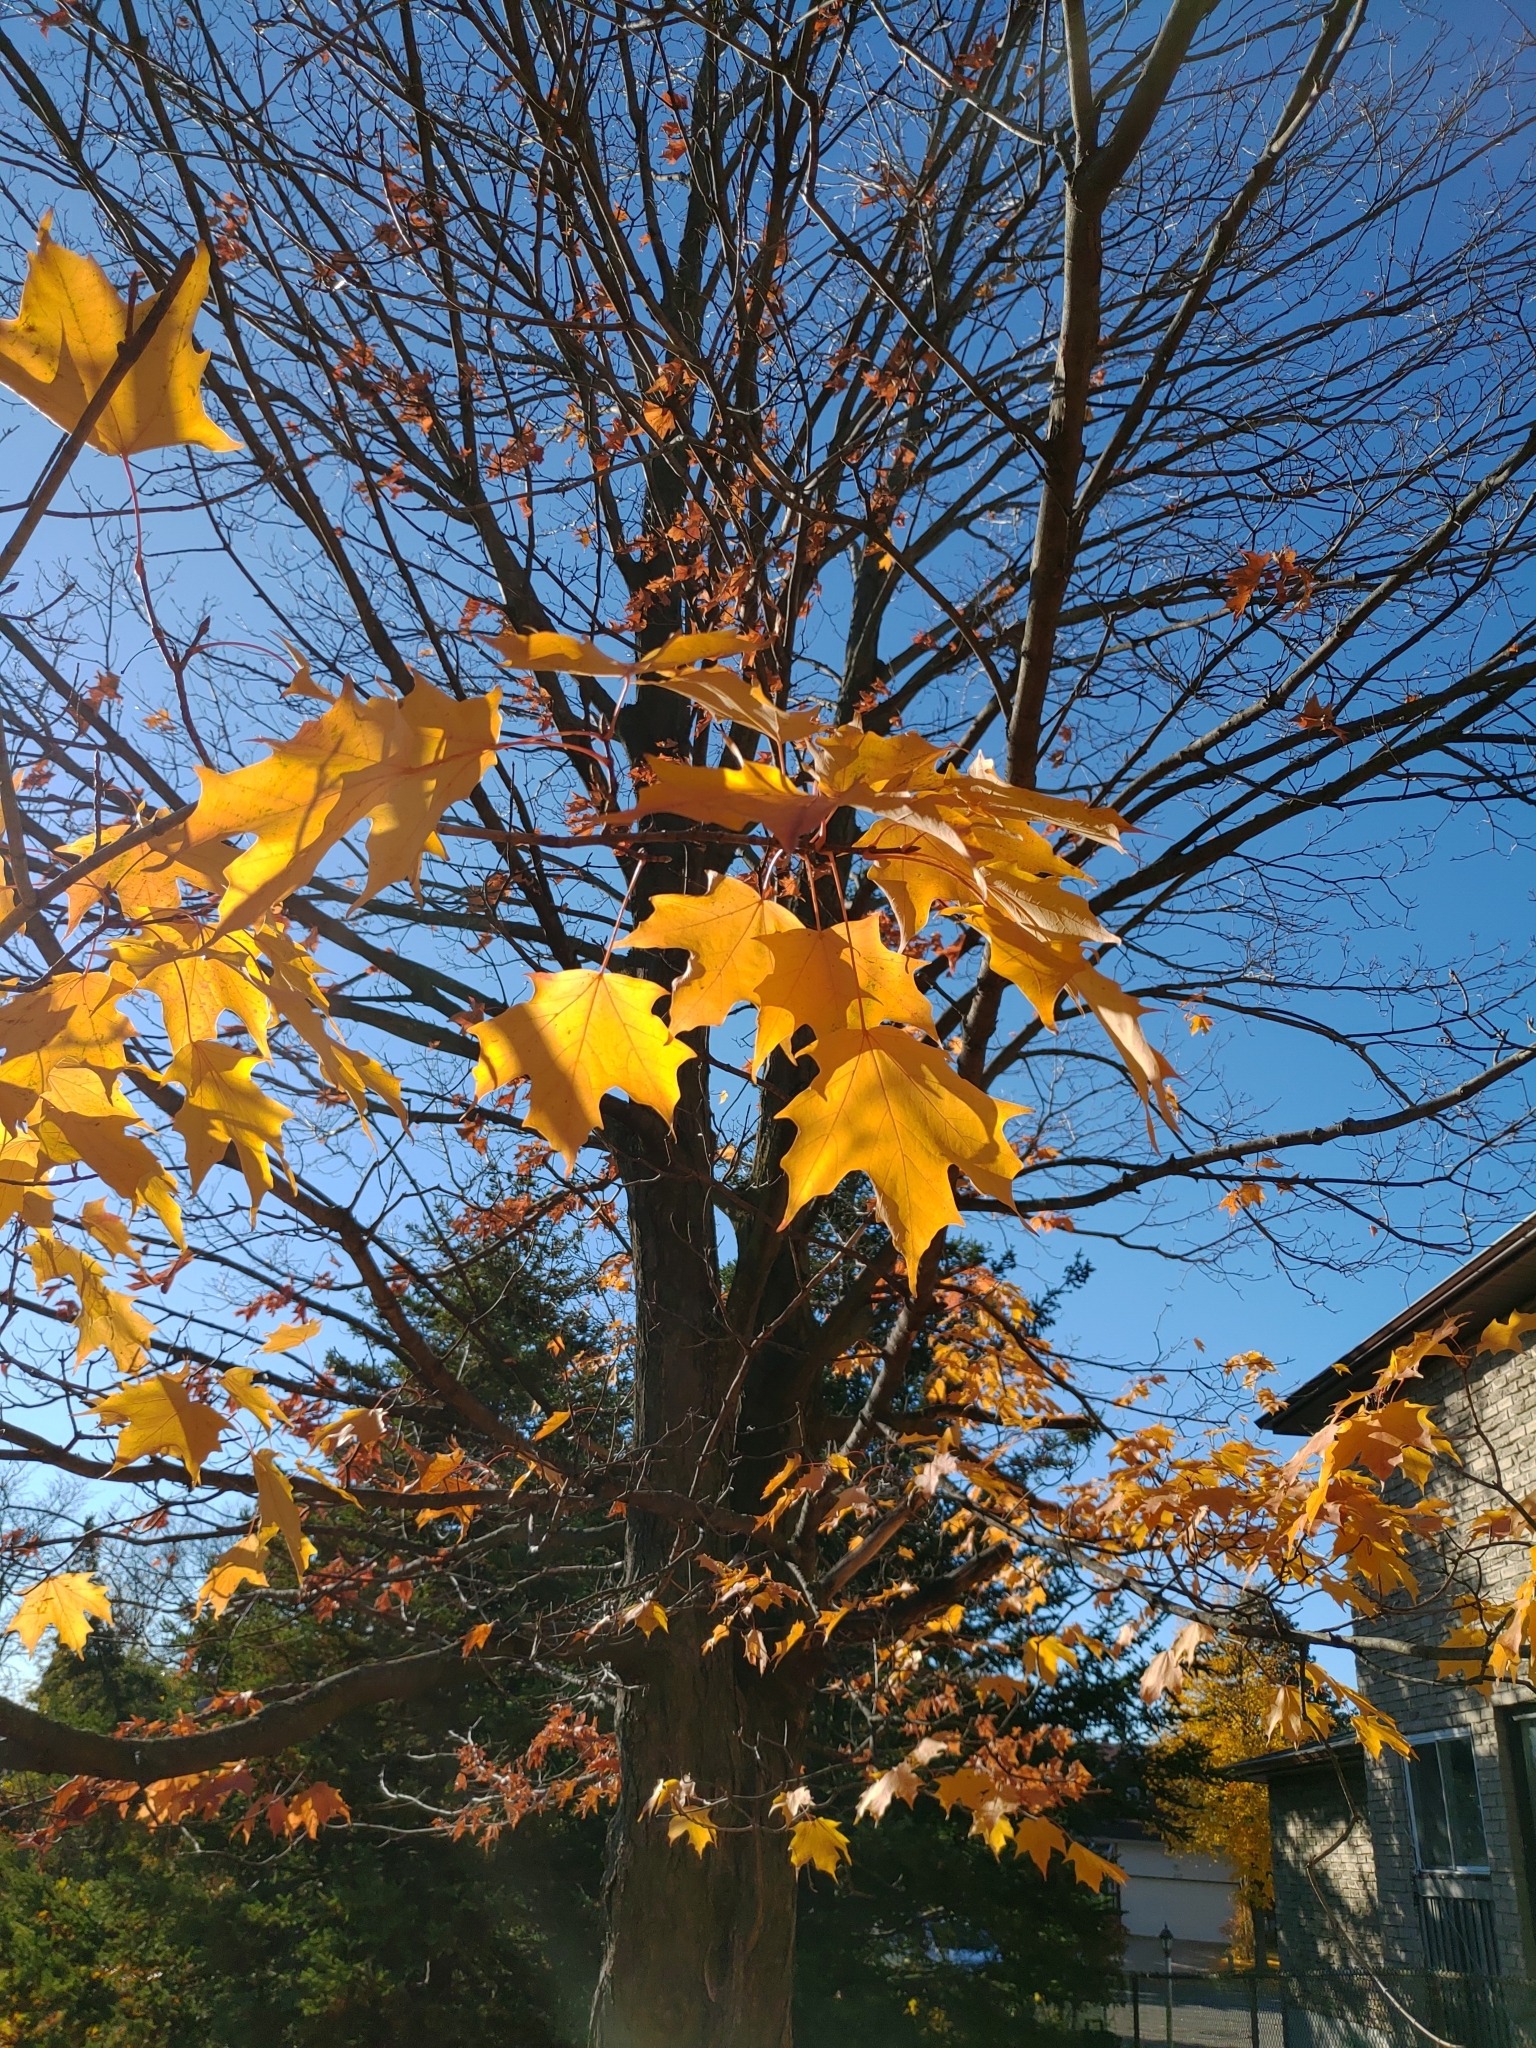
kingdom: Plantae
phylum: Tracheophyta
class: Magnoliopsida
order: Sapindales
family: Sapindaceae
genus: Acer
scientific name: Acer saccharum
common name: Sugar maple
